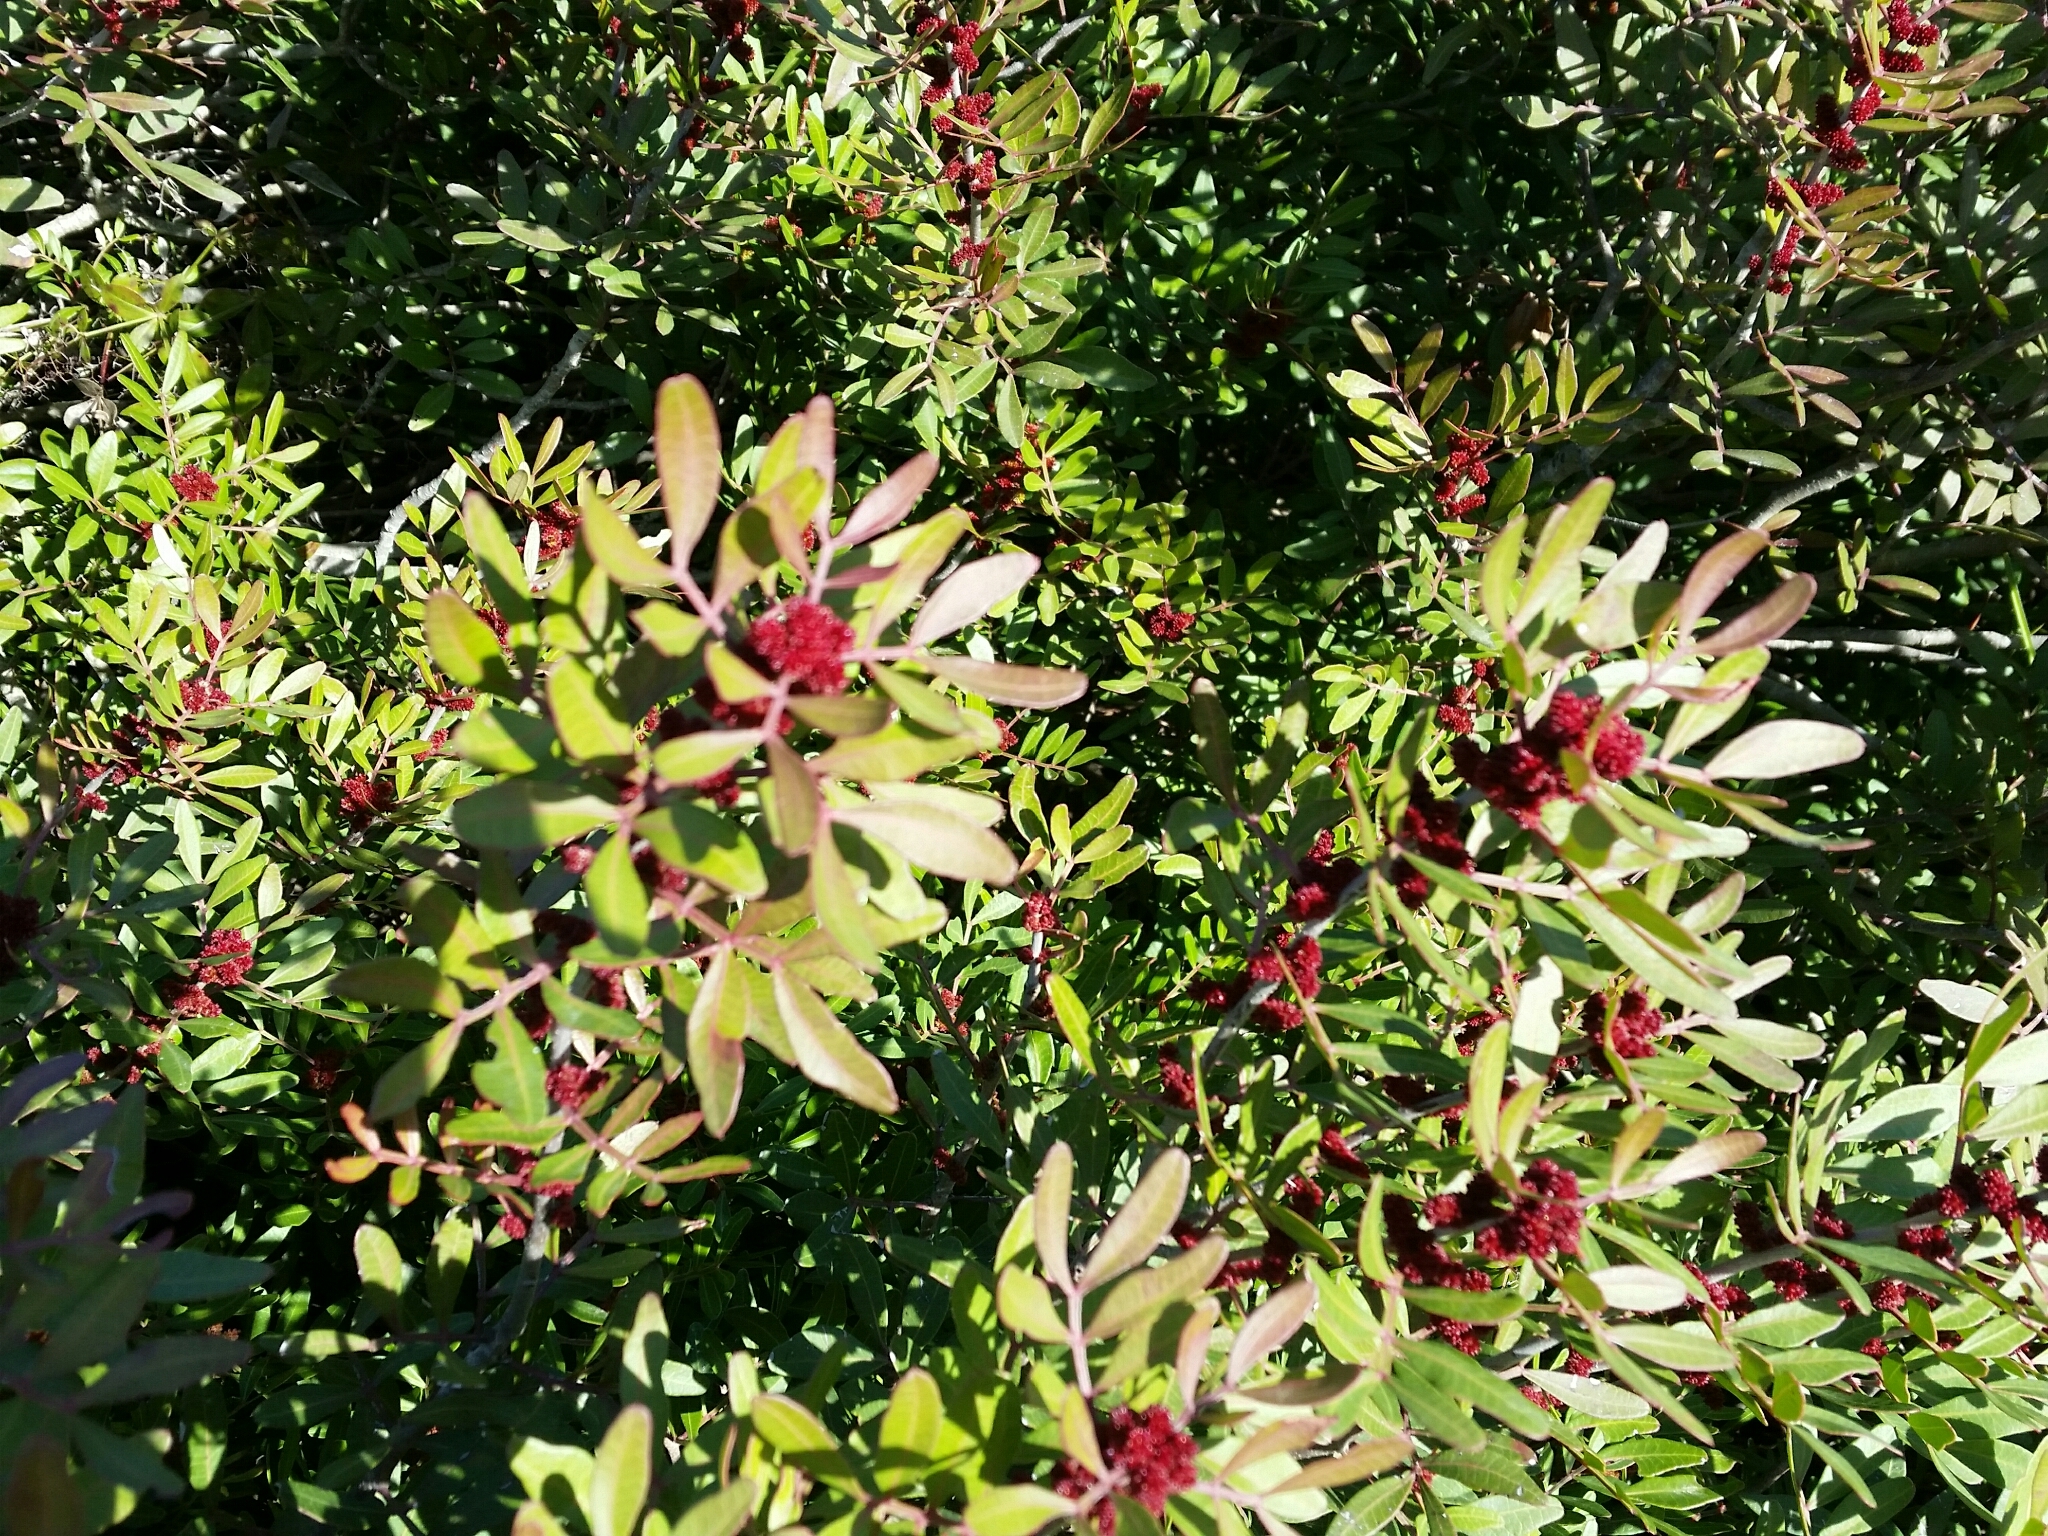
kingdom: Plantae
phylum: Tracheophyta
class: Magnoliopsida
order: Sapindales
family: Anacardiaceae
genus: Pistacia
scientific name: Pistacia lentiscus
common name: Lentisk
